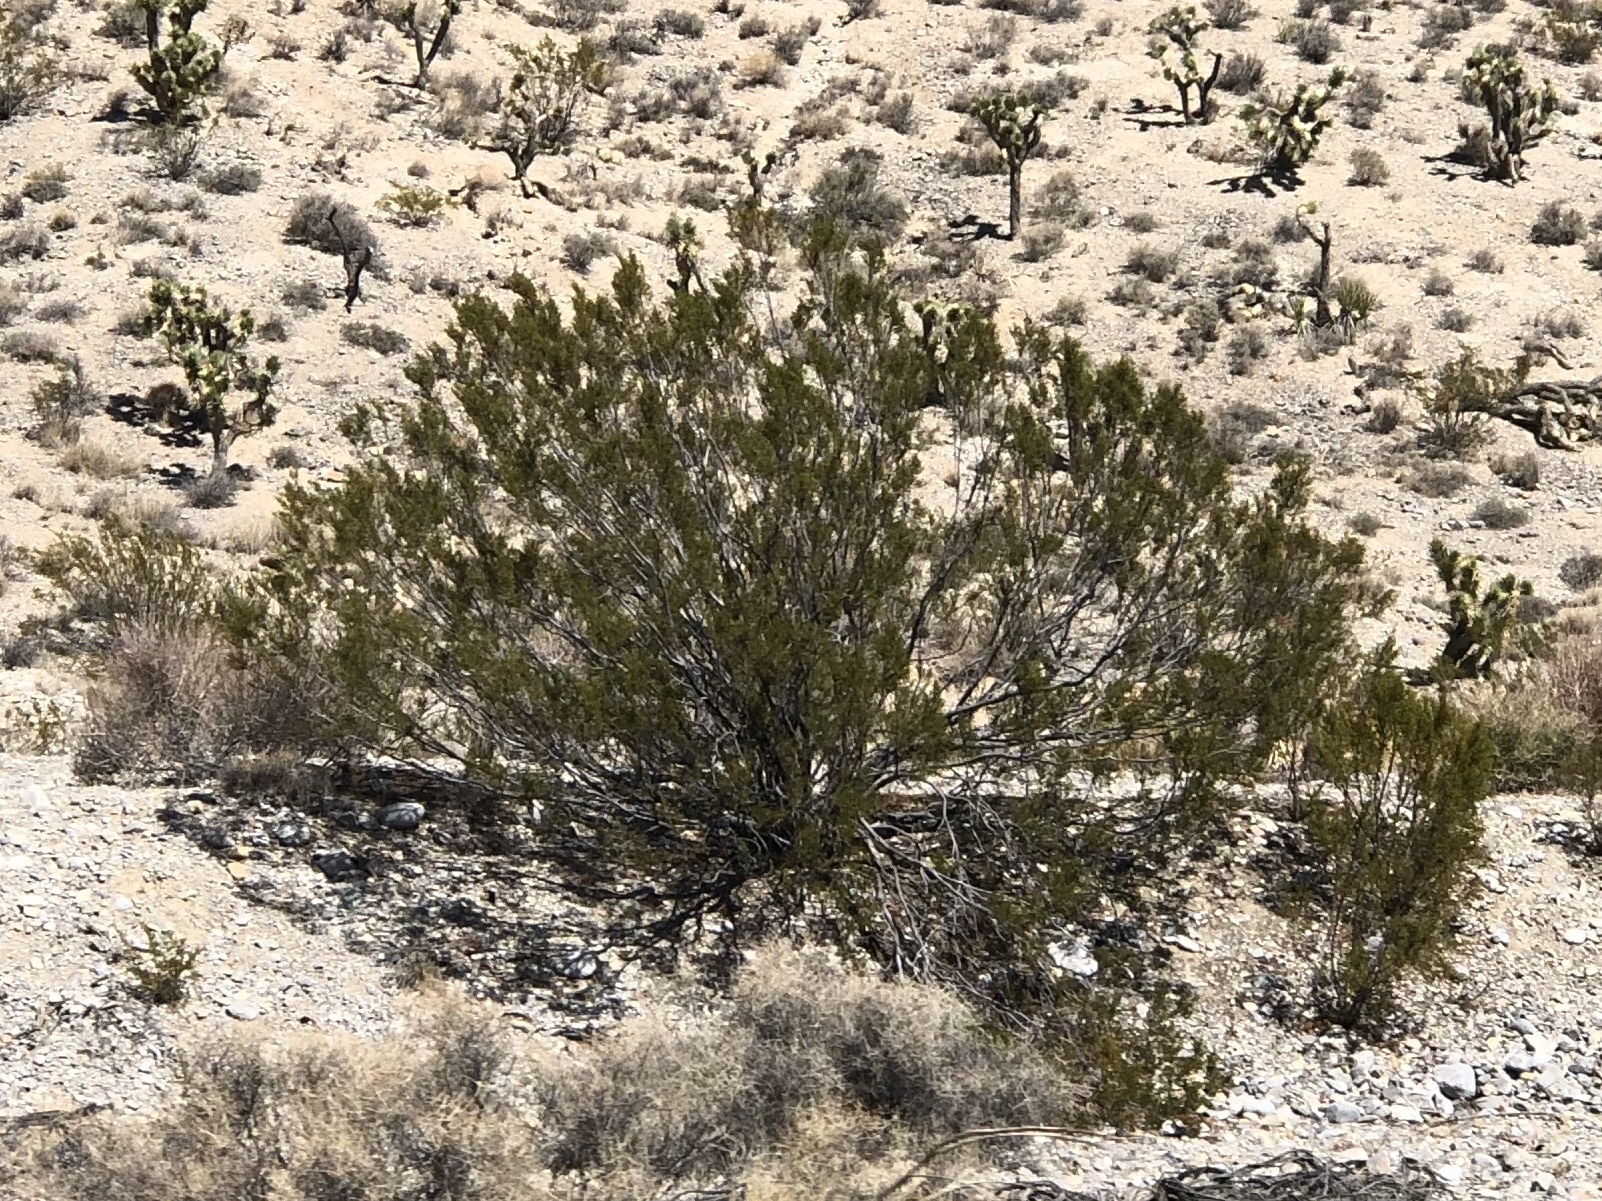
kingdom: Plantae
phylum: Tracheophyta
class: Magnoliopsida
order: Zygophyllales
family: Zygophyllaceae
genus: Larrea
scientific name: Larrea tridentata
